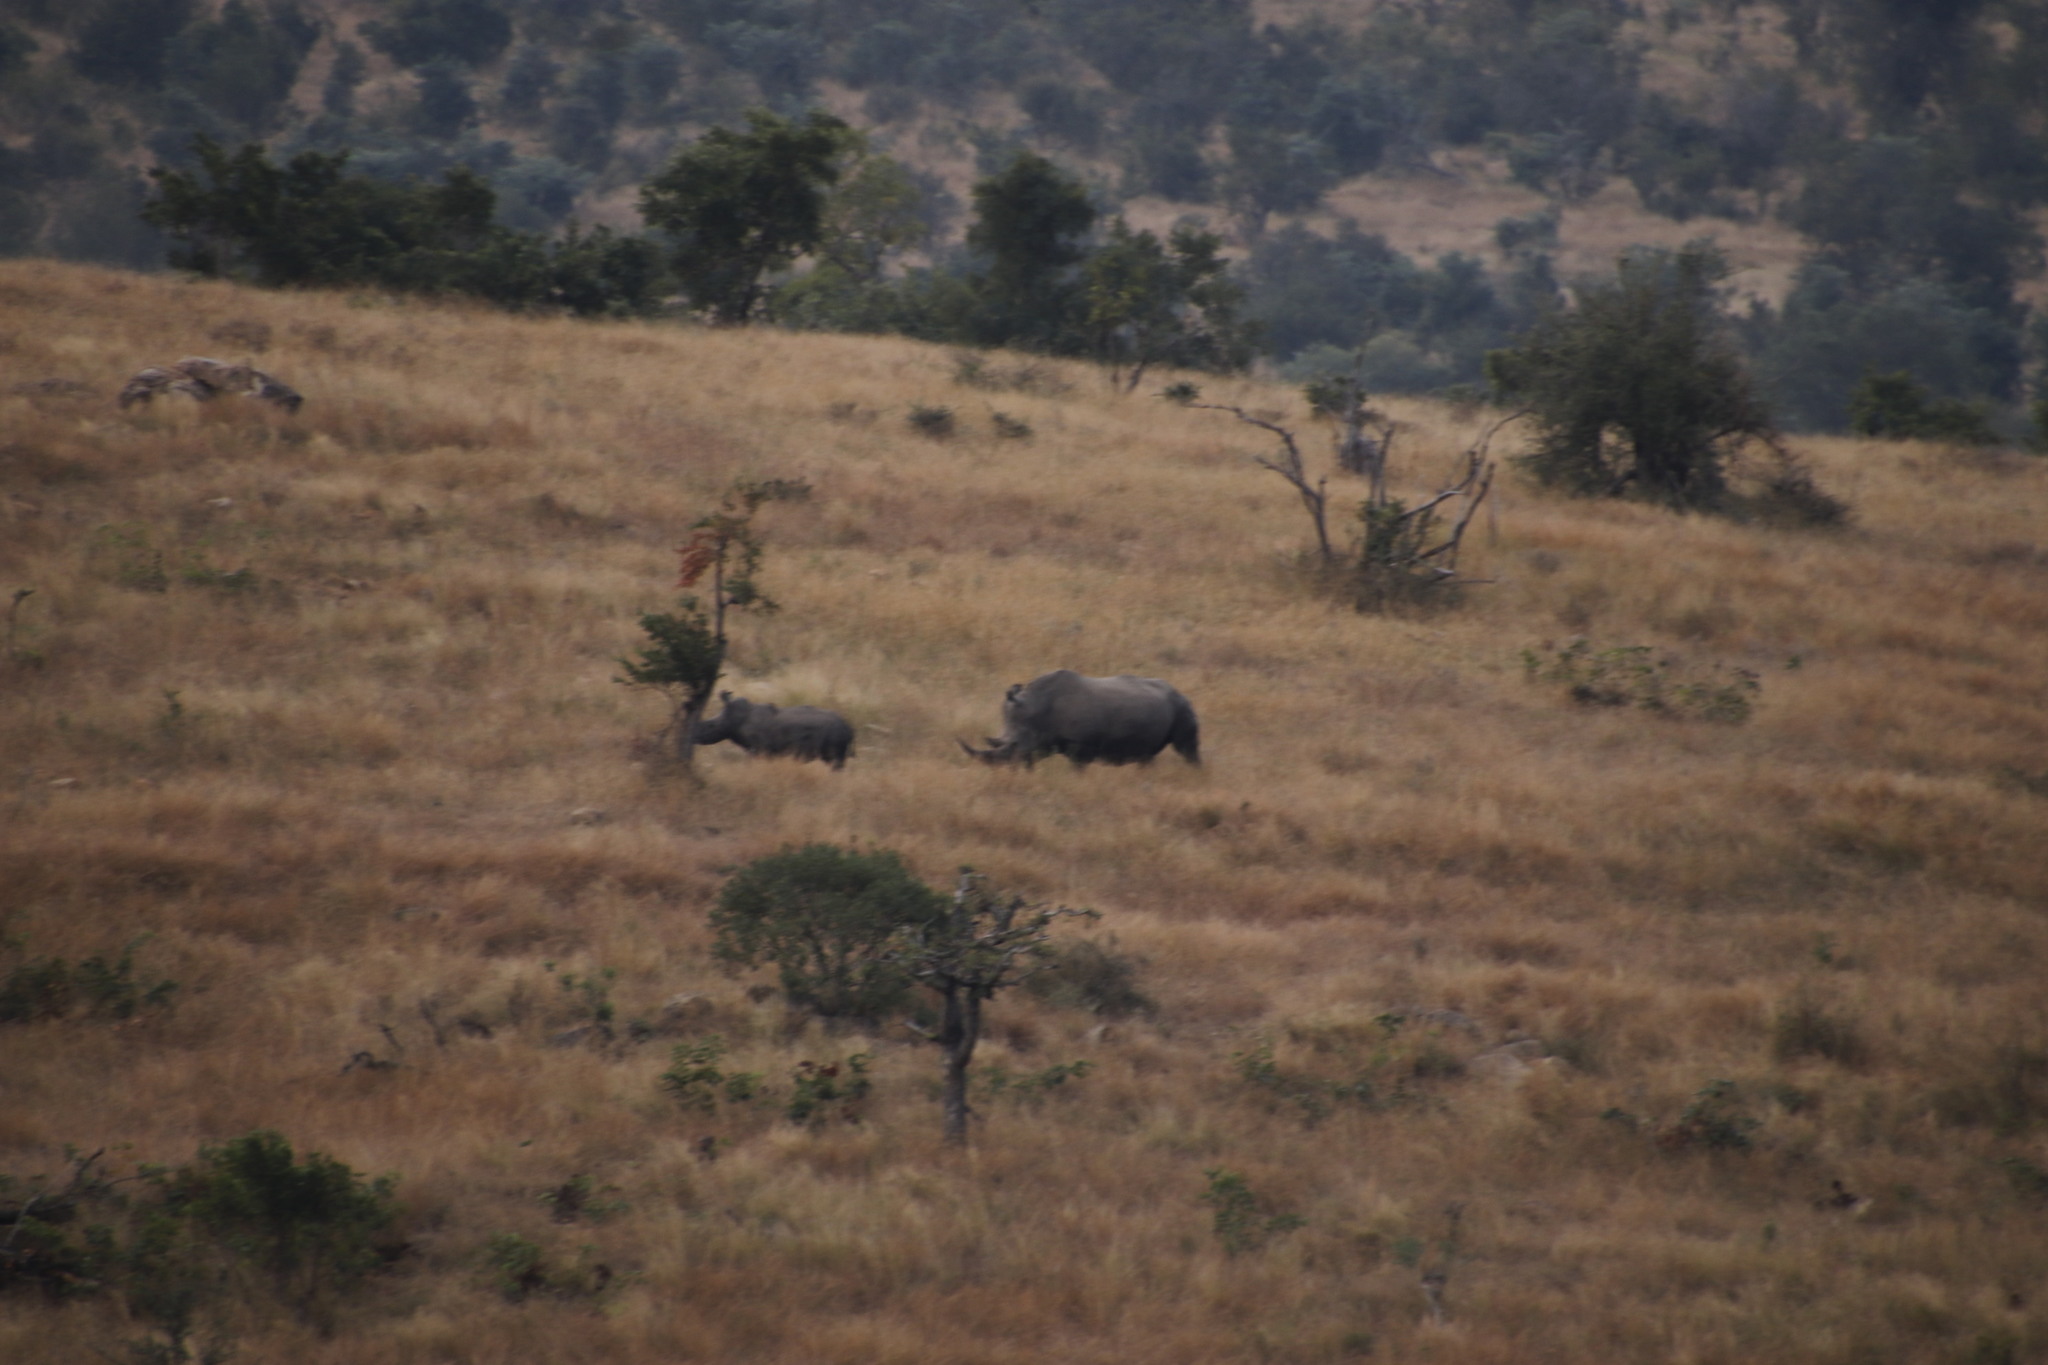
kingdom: Animalia
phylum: Chordata
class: Mammalia
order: Perissodactyla
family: Rhinocerotidae
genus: Ceratotherium
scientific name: Ceratotherium simum
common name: White rhinoceros
